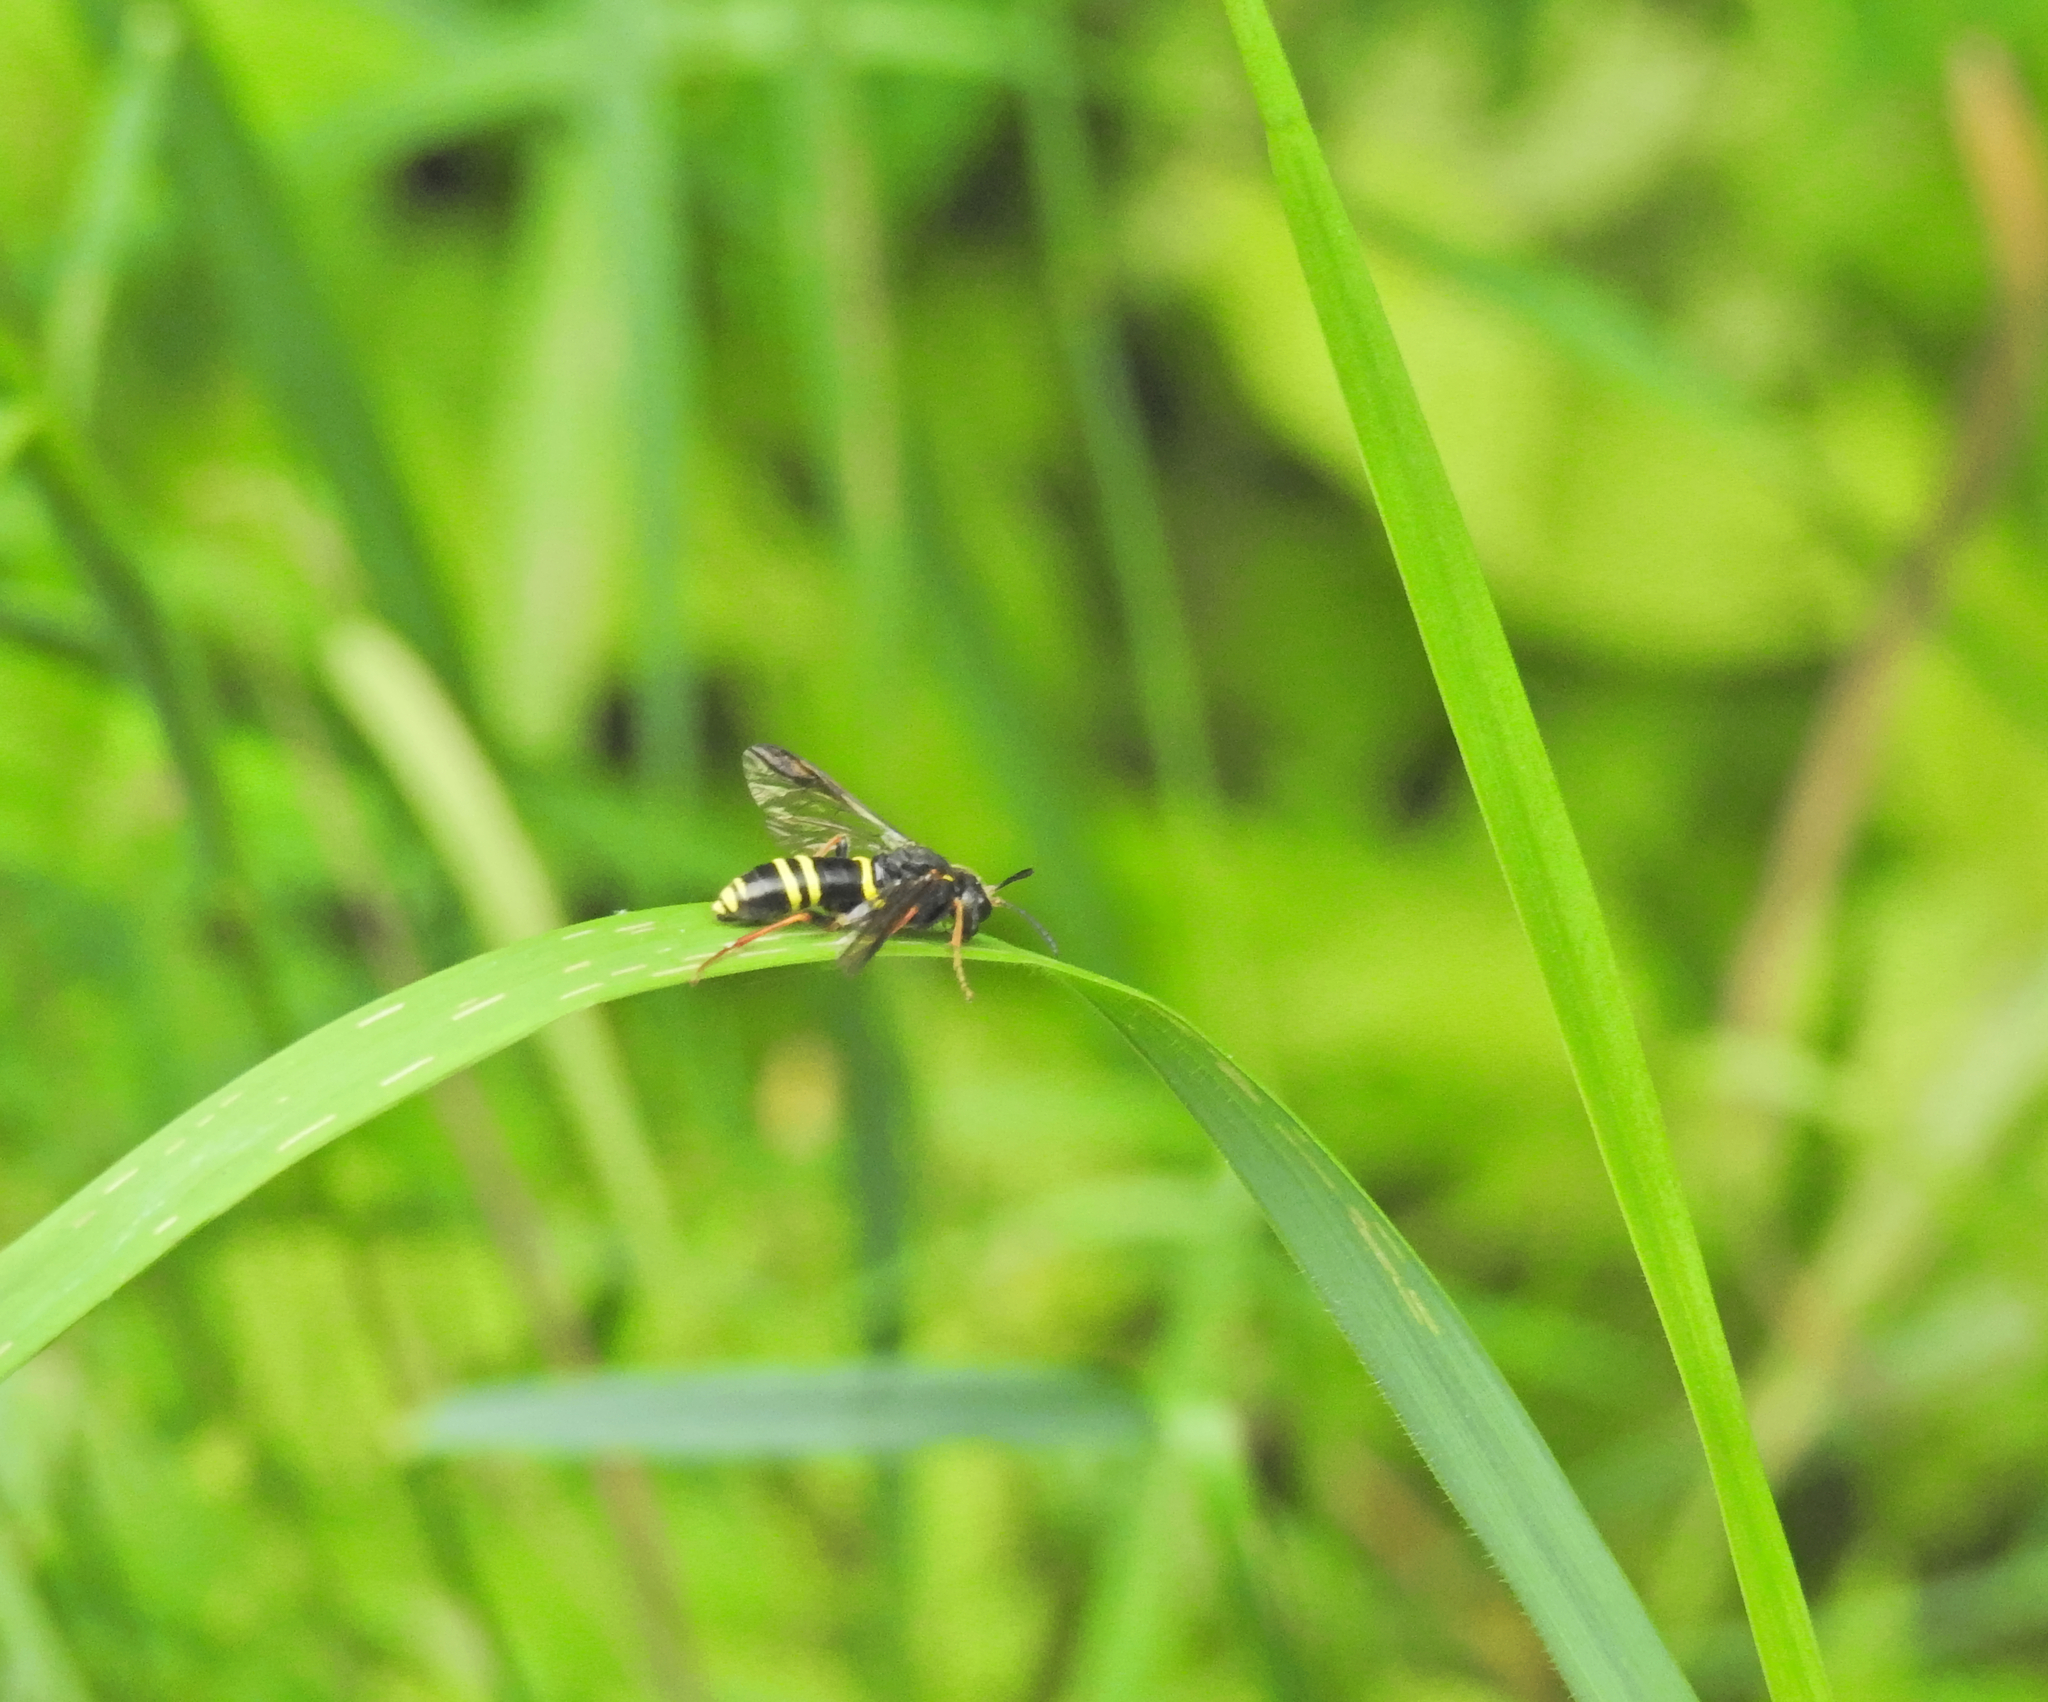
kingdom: Animalia
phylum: Arthropoda
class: Insecta
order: Hymenoptera
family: Tenthredinidae
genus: Tenthredo
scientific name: Tenthredo vespa
